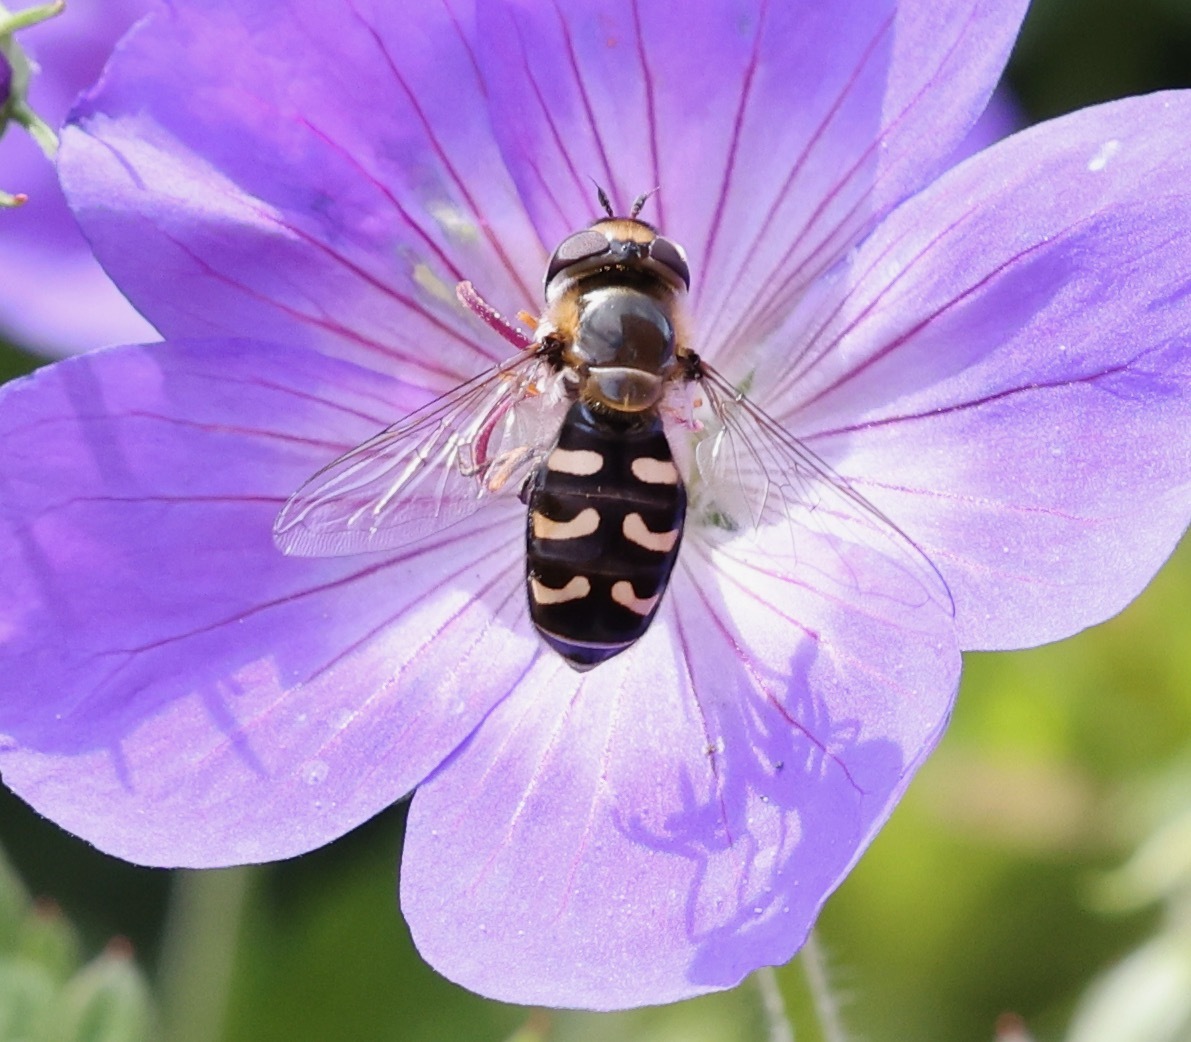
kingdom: Animalia
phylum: Arthropoda
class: Insecta
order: Diptera
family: Syrphidae
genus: Scaeva
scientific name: Scaeva pyrastri
